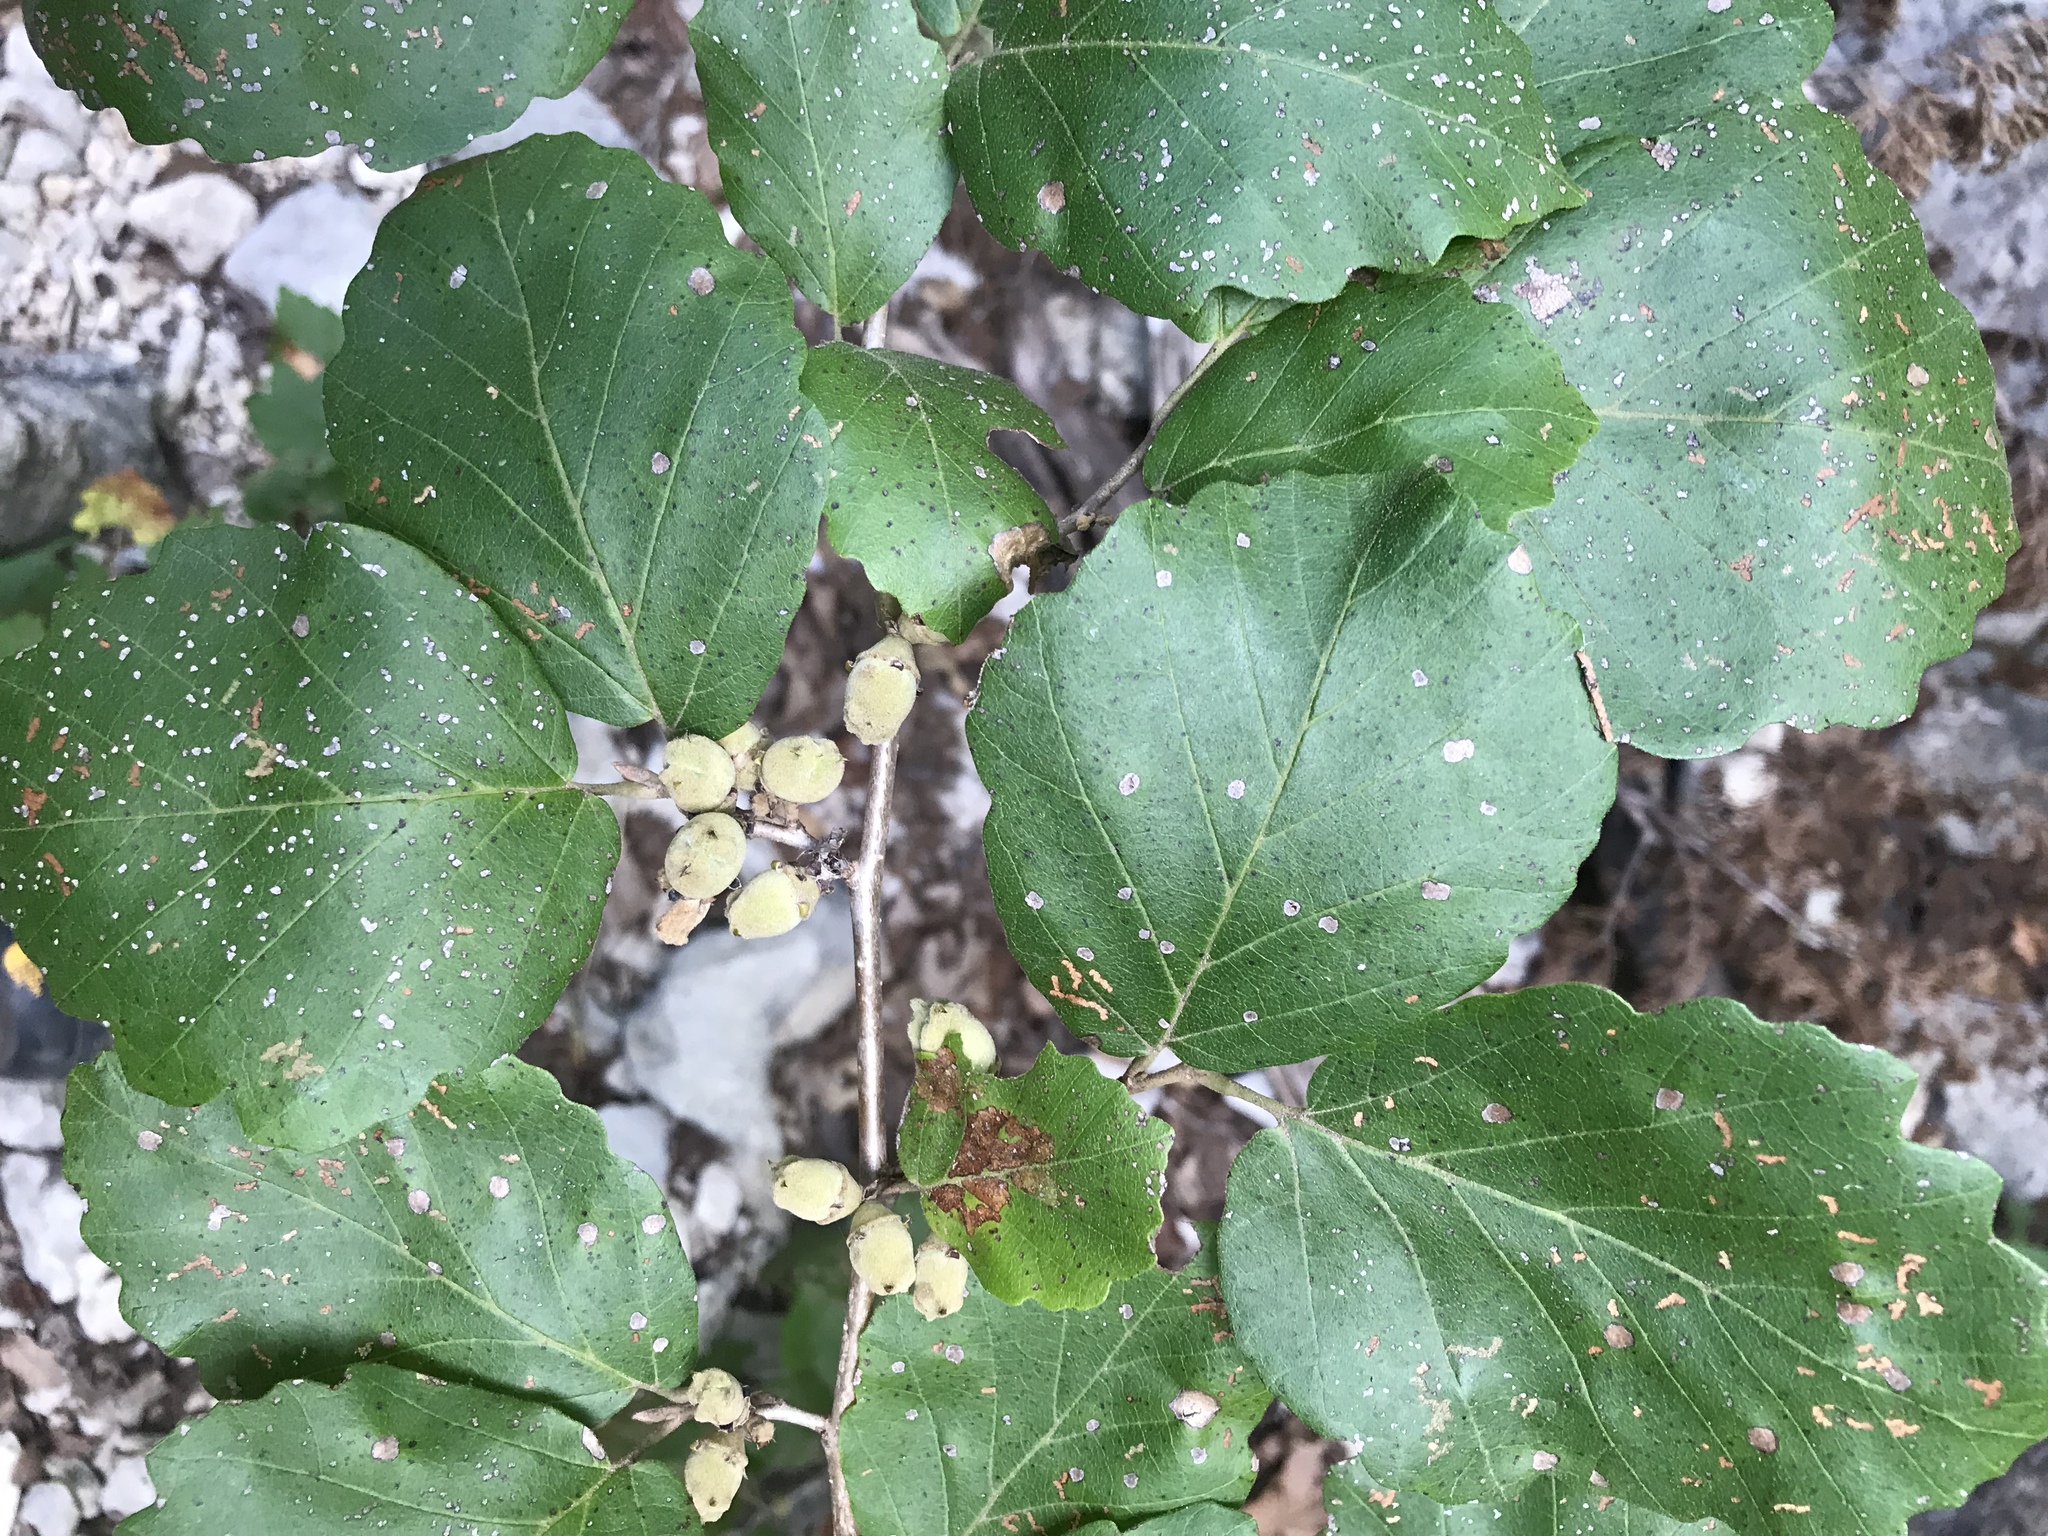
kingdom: Plantae
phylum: Tracheophyta
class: Magnoliopsida
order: Saxifragales
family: Hamamelidaceae
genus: Hamamelis
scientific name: Hamamelis virginiana
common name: Witch-hazel
